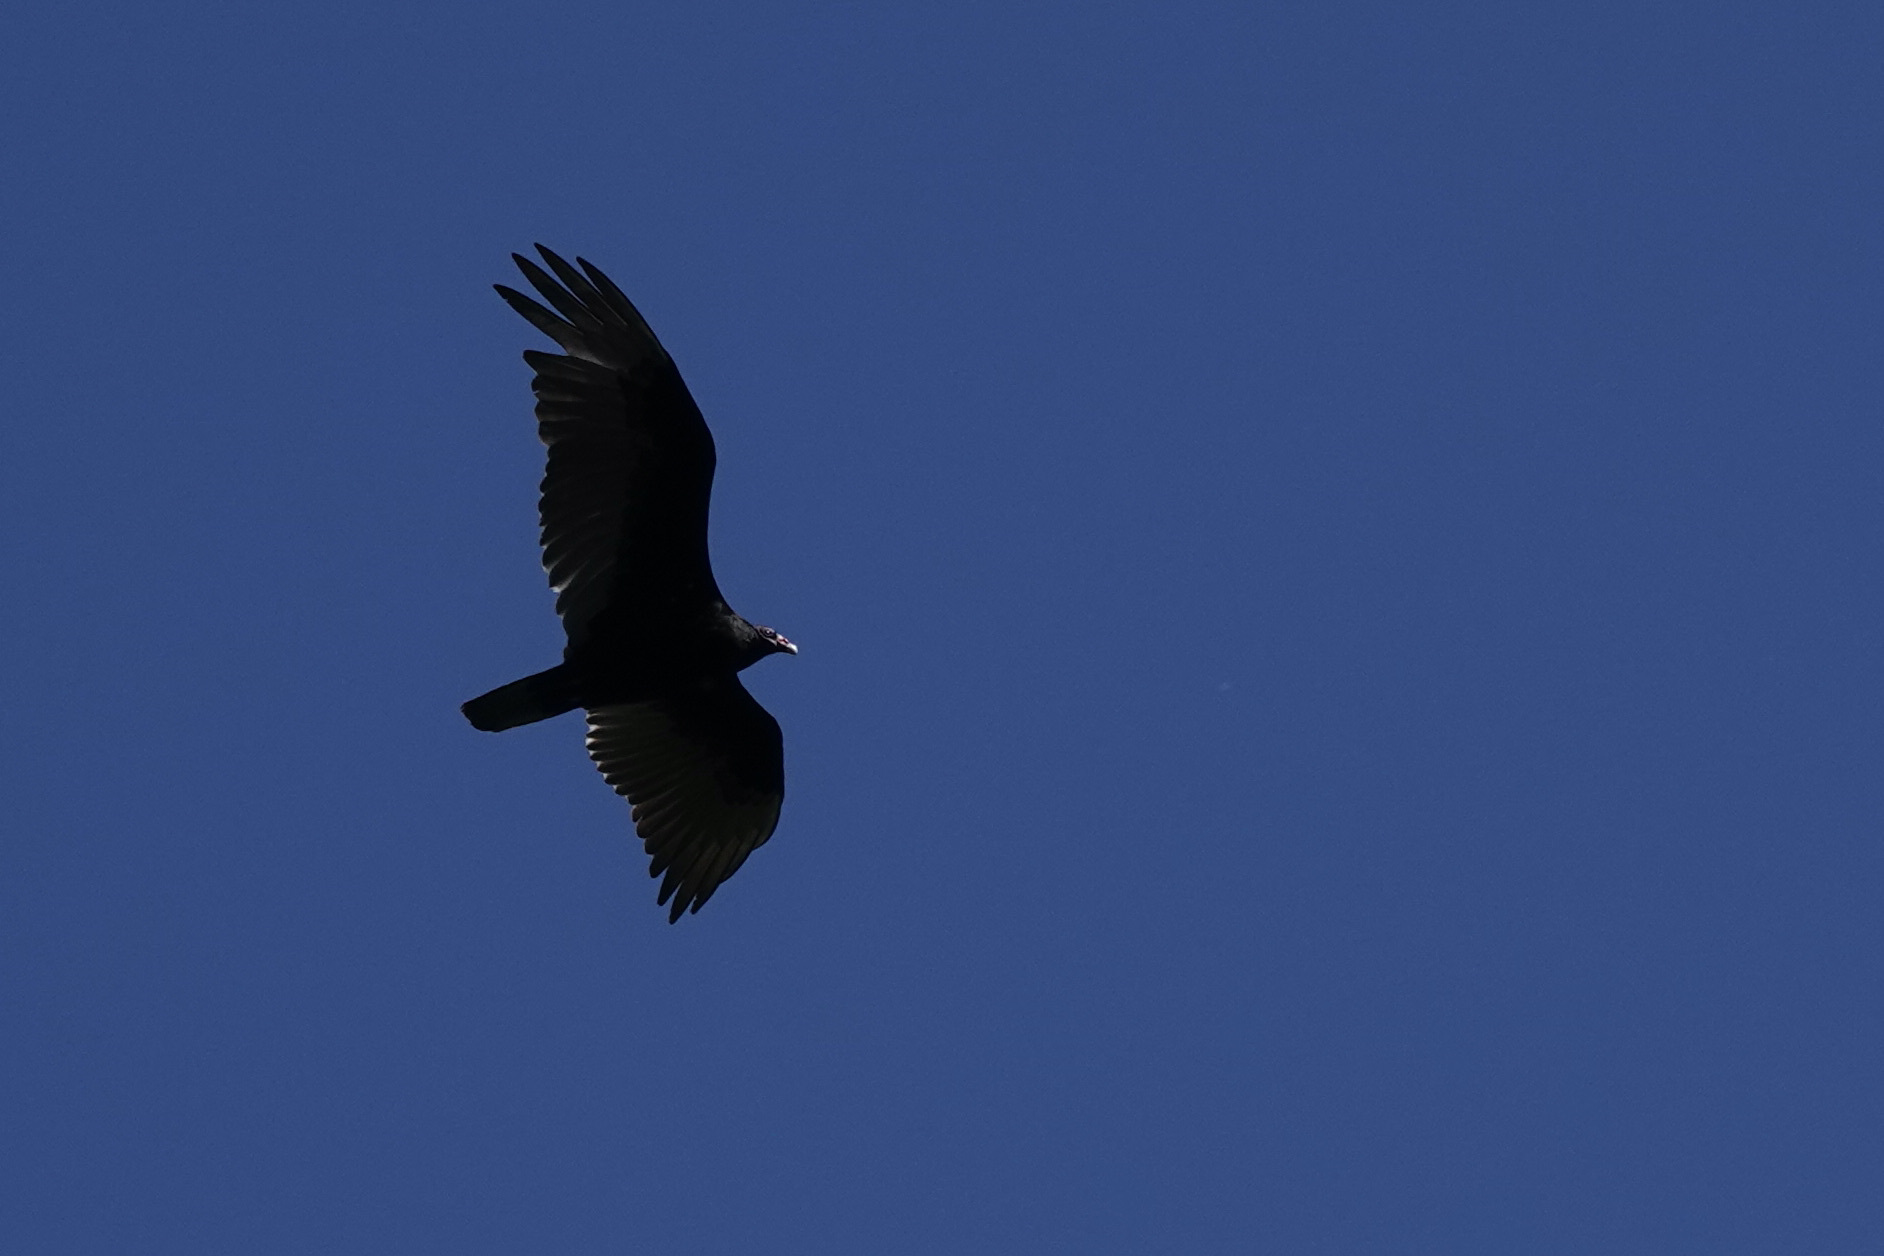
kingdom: Animalia
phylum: Chordata
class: Aves
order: Accipitriformes
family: Cathartidae
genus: Cathartes
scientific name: Cathartes aura
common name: Turkey vulture
